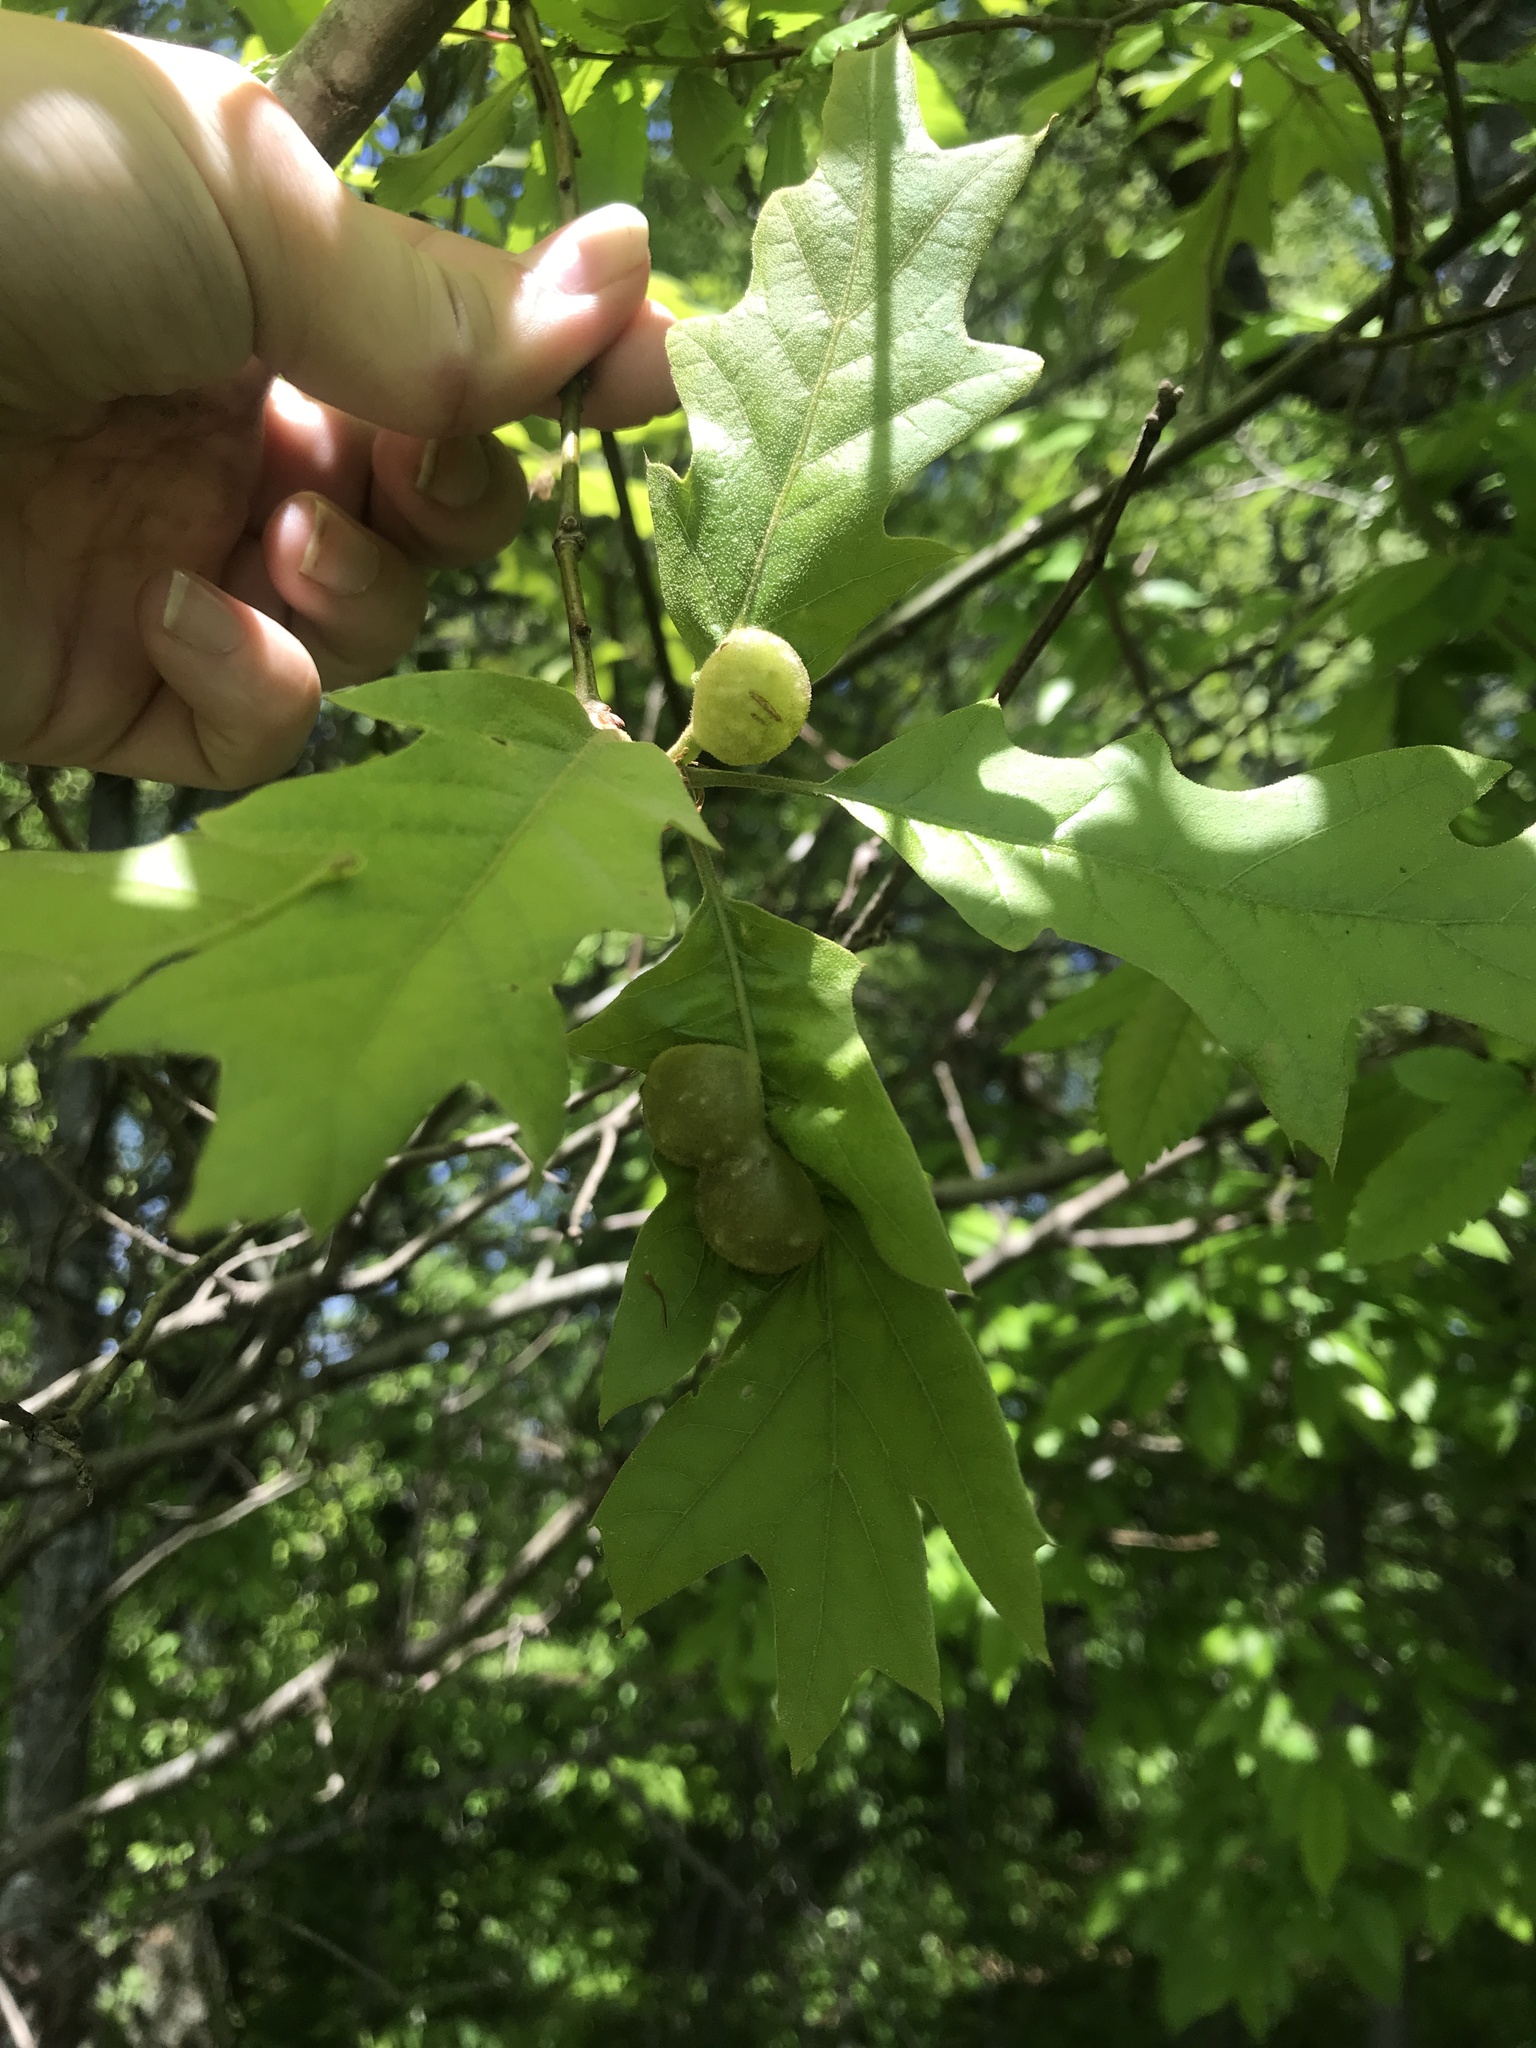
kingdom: Animalia
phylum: Arthropoda
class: Insecta
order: Hymenoptera
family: Cynipidae
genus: Dryocosmus
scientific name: Dryocosmus quercuspalustris
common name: Succulent oak gall wasp
